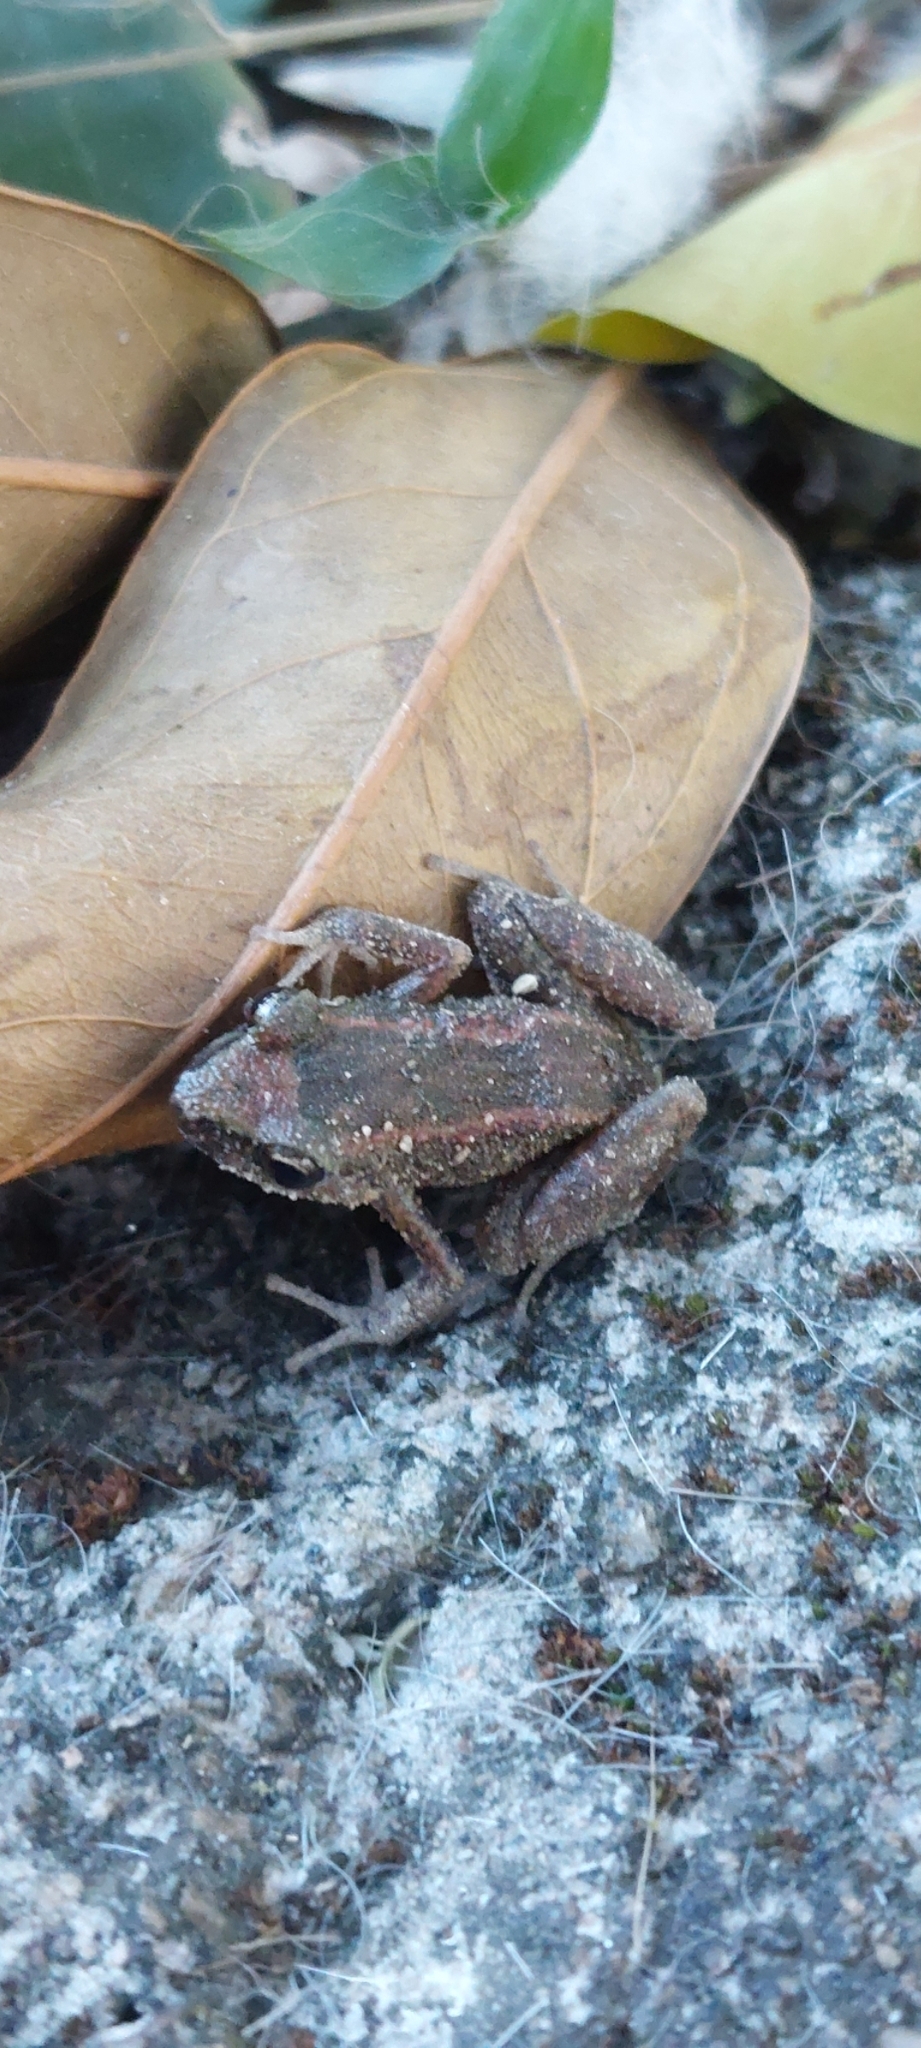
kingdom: Animalia
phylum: Chordata
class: Amphibia
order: Anura
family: Eleutherodactylidae
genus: Eleutherodactylus
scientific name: Eleutherodactylus planirostris
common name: Greenhouse frog
